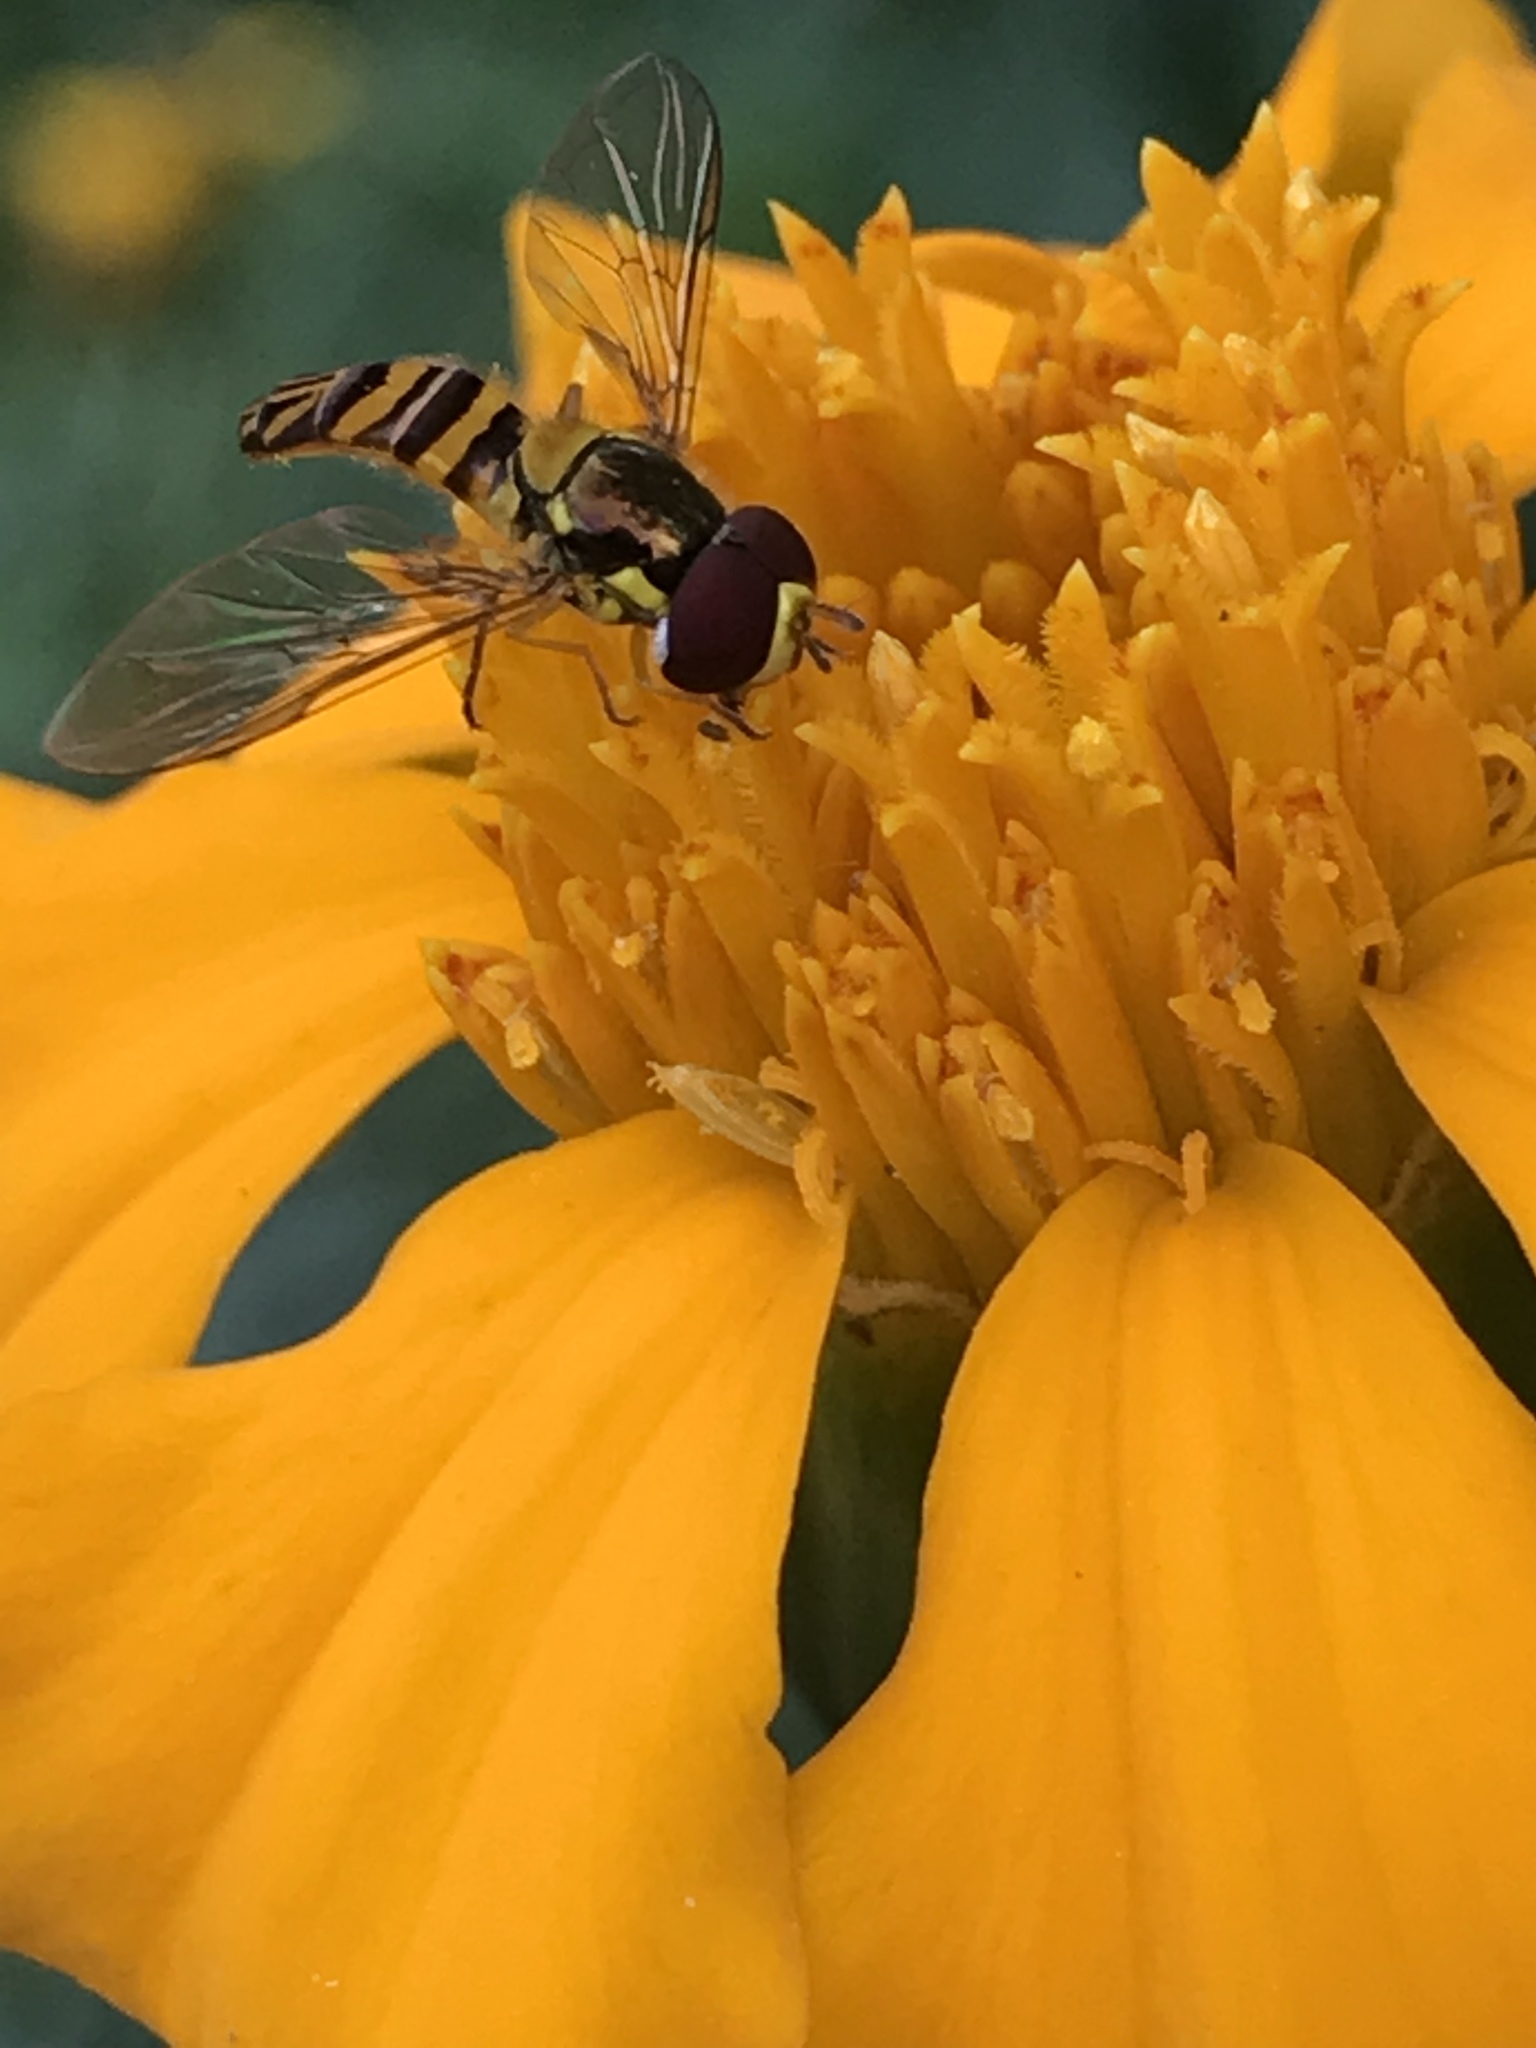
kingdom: Animalia
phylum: Arthropoda
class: Insecta
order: Diptera
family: Syrphidae
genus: Allograpta
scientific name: Allograpta obliqua
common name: Common oblique syrphid
